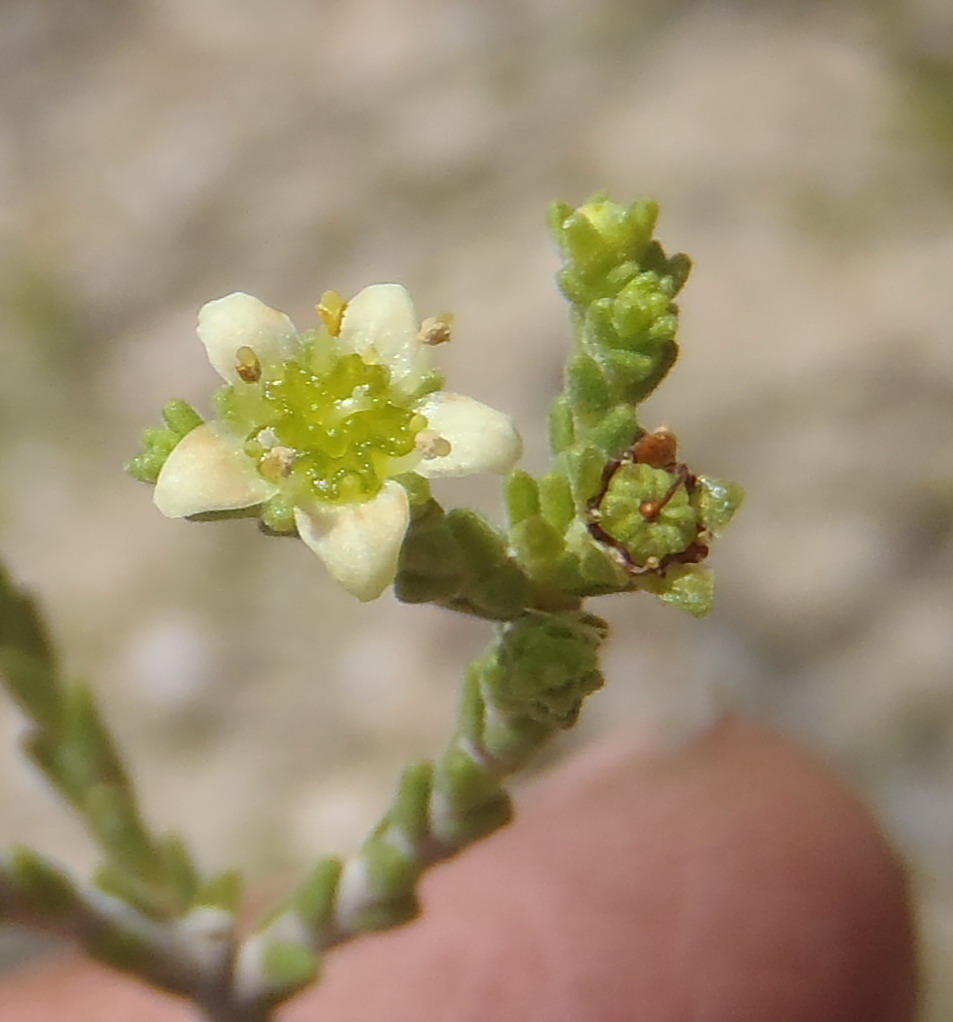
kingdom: Plantae
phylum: Tracheophyta
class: Magnoliopsida
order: Sapindales
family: Rutaceae
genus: Diosma
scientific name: Diosma prama
